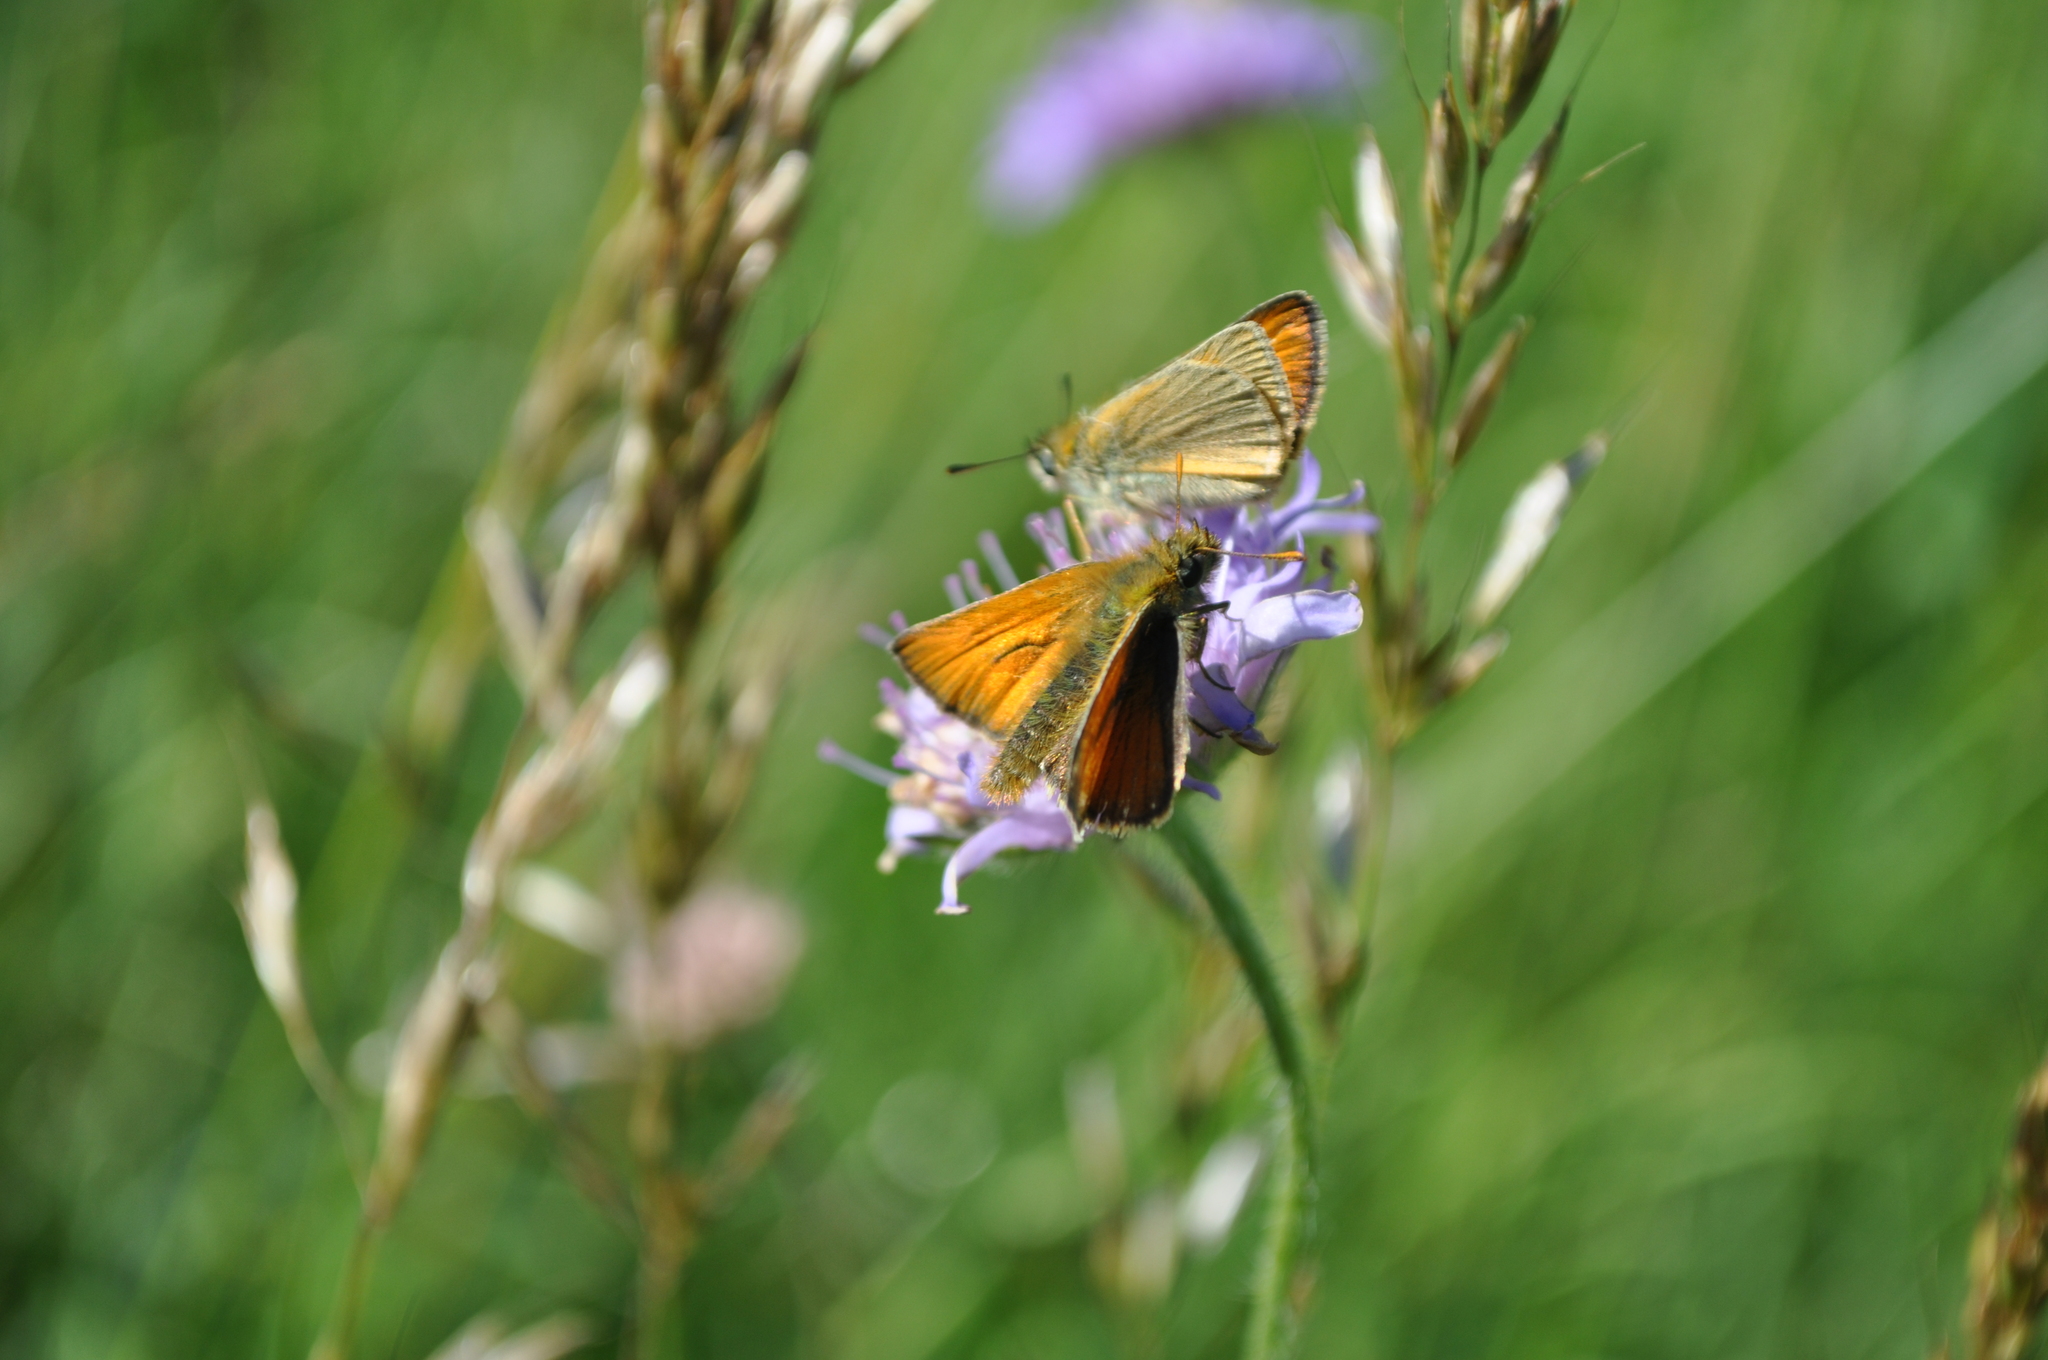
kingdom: Animalia
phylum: Arthropoda
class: Insecta
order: Lepidoptera
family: Hesperiidae
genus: Thymelicus
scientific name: Thymelicus sylvestris
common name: Small skipper
